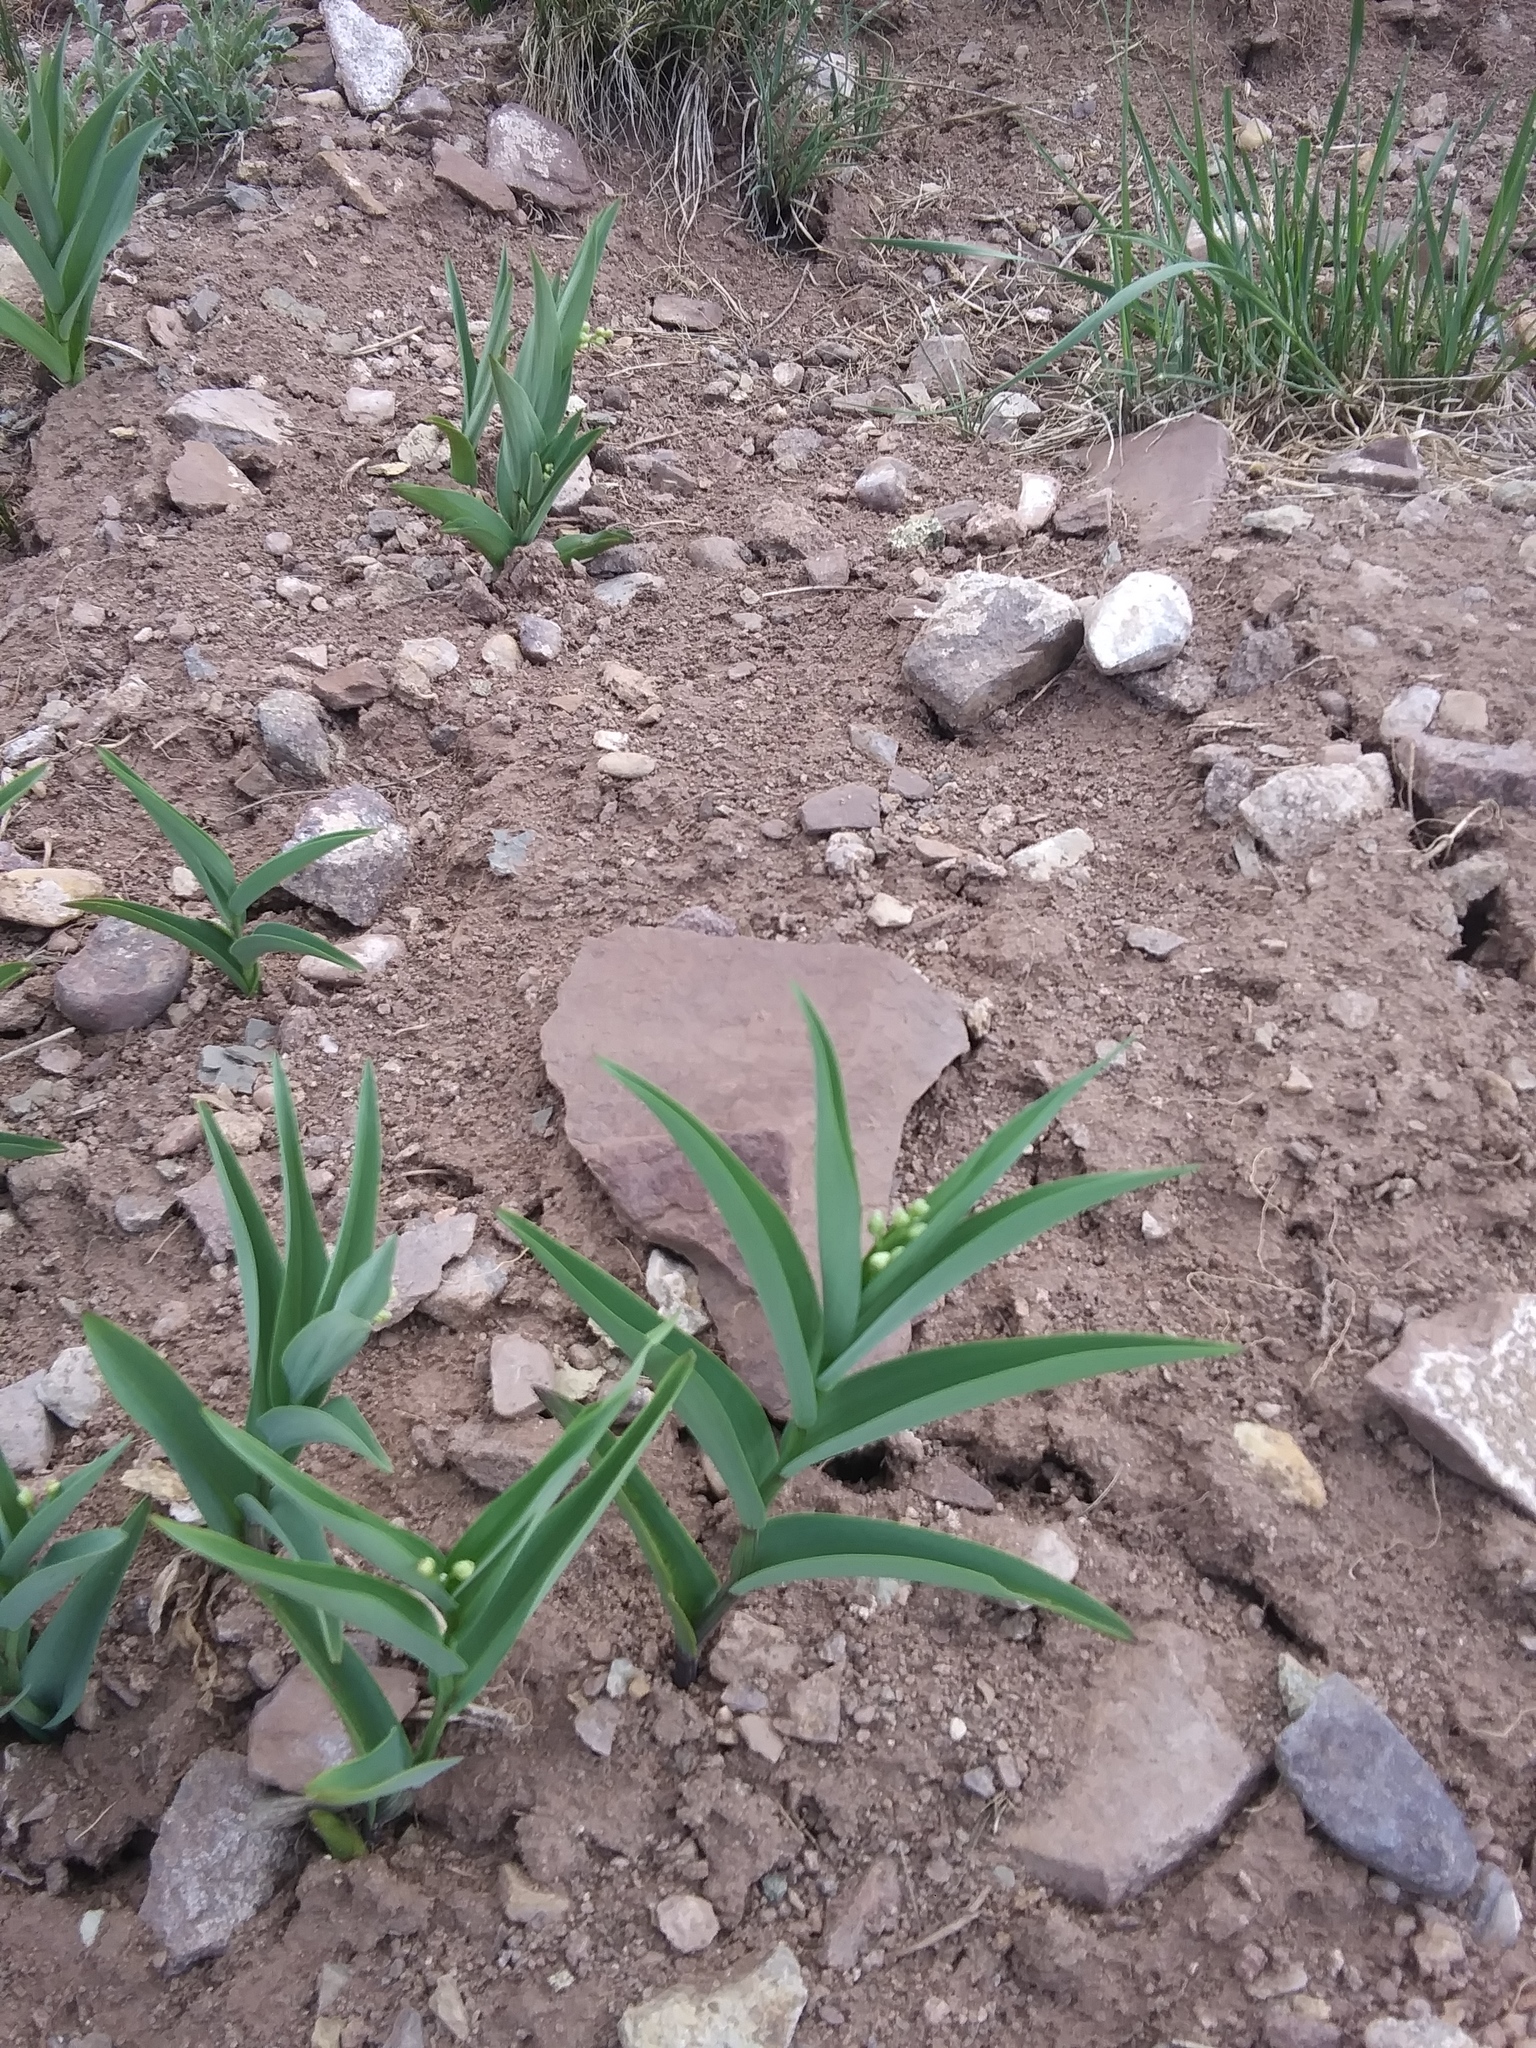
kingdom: Plantae
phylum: Tracheophyta
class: Liliopsida
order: Asparagales
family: Asparagaceae
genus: Maianthemum
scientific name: Maianthemum stellatum
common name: Little false solomon's seal
